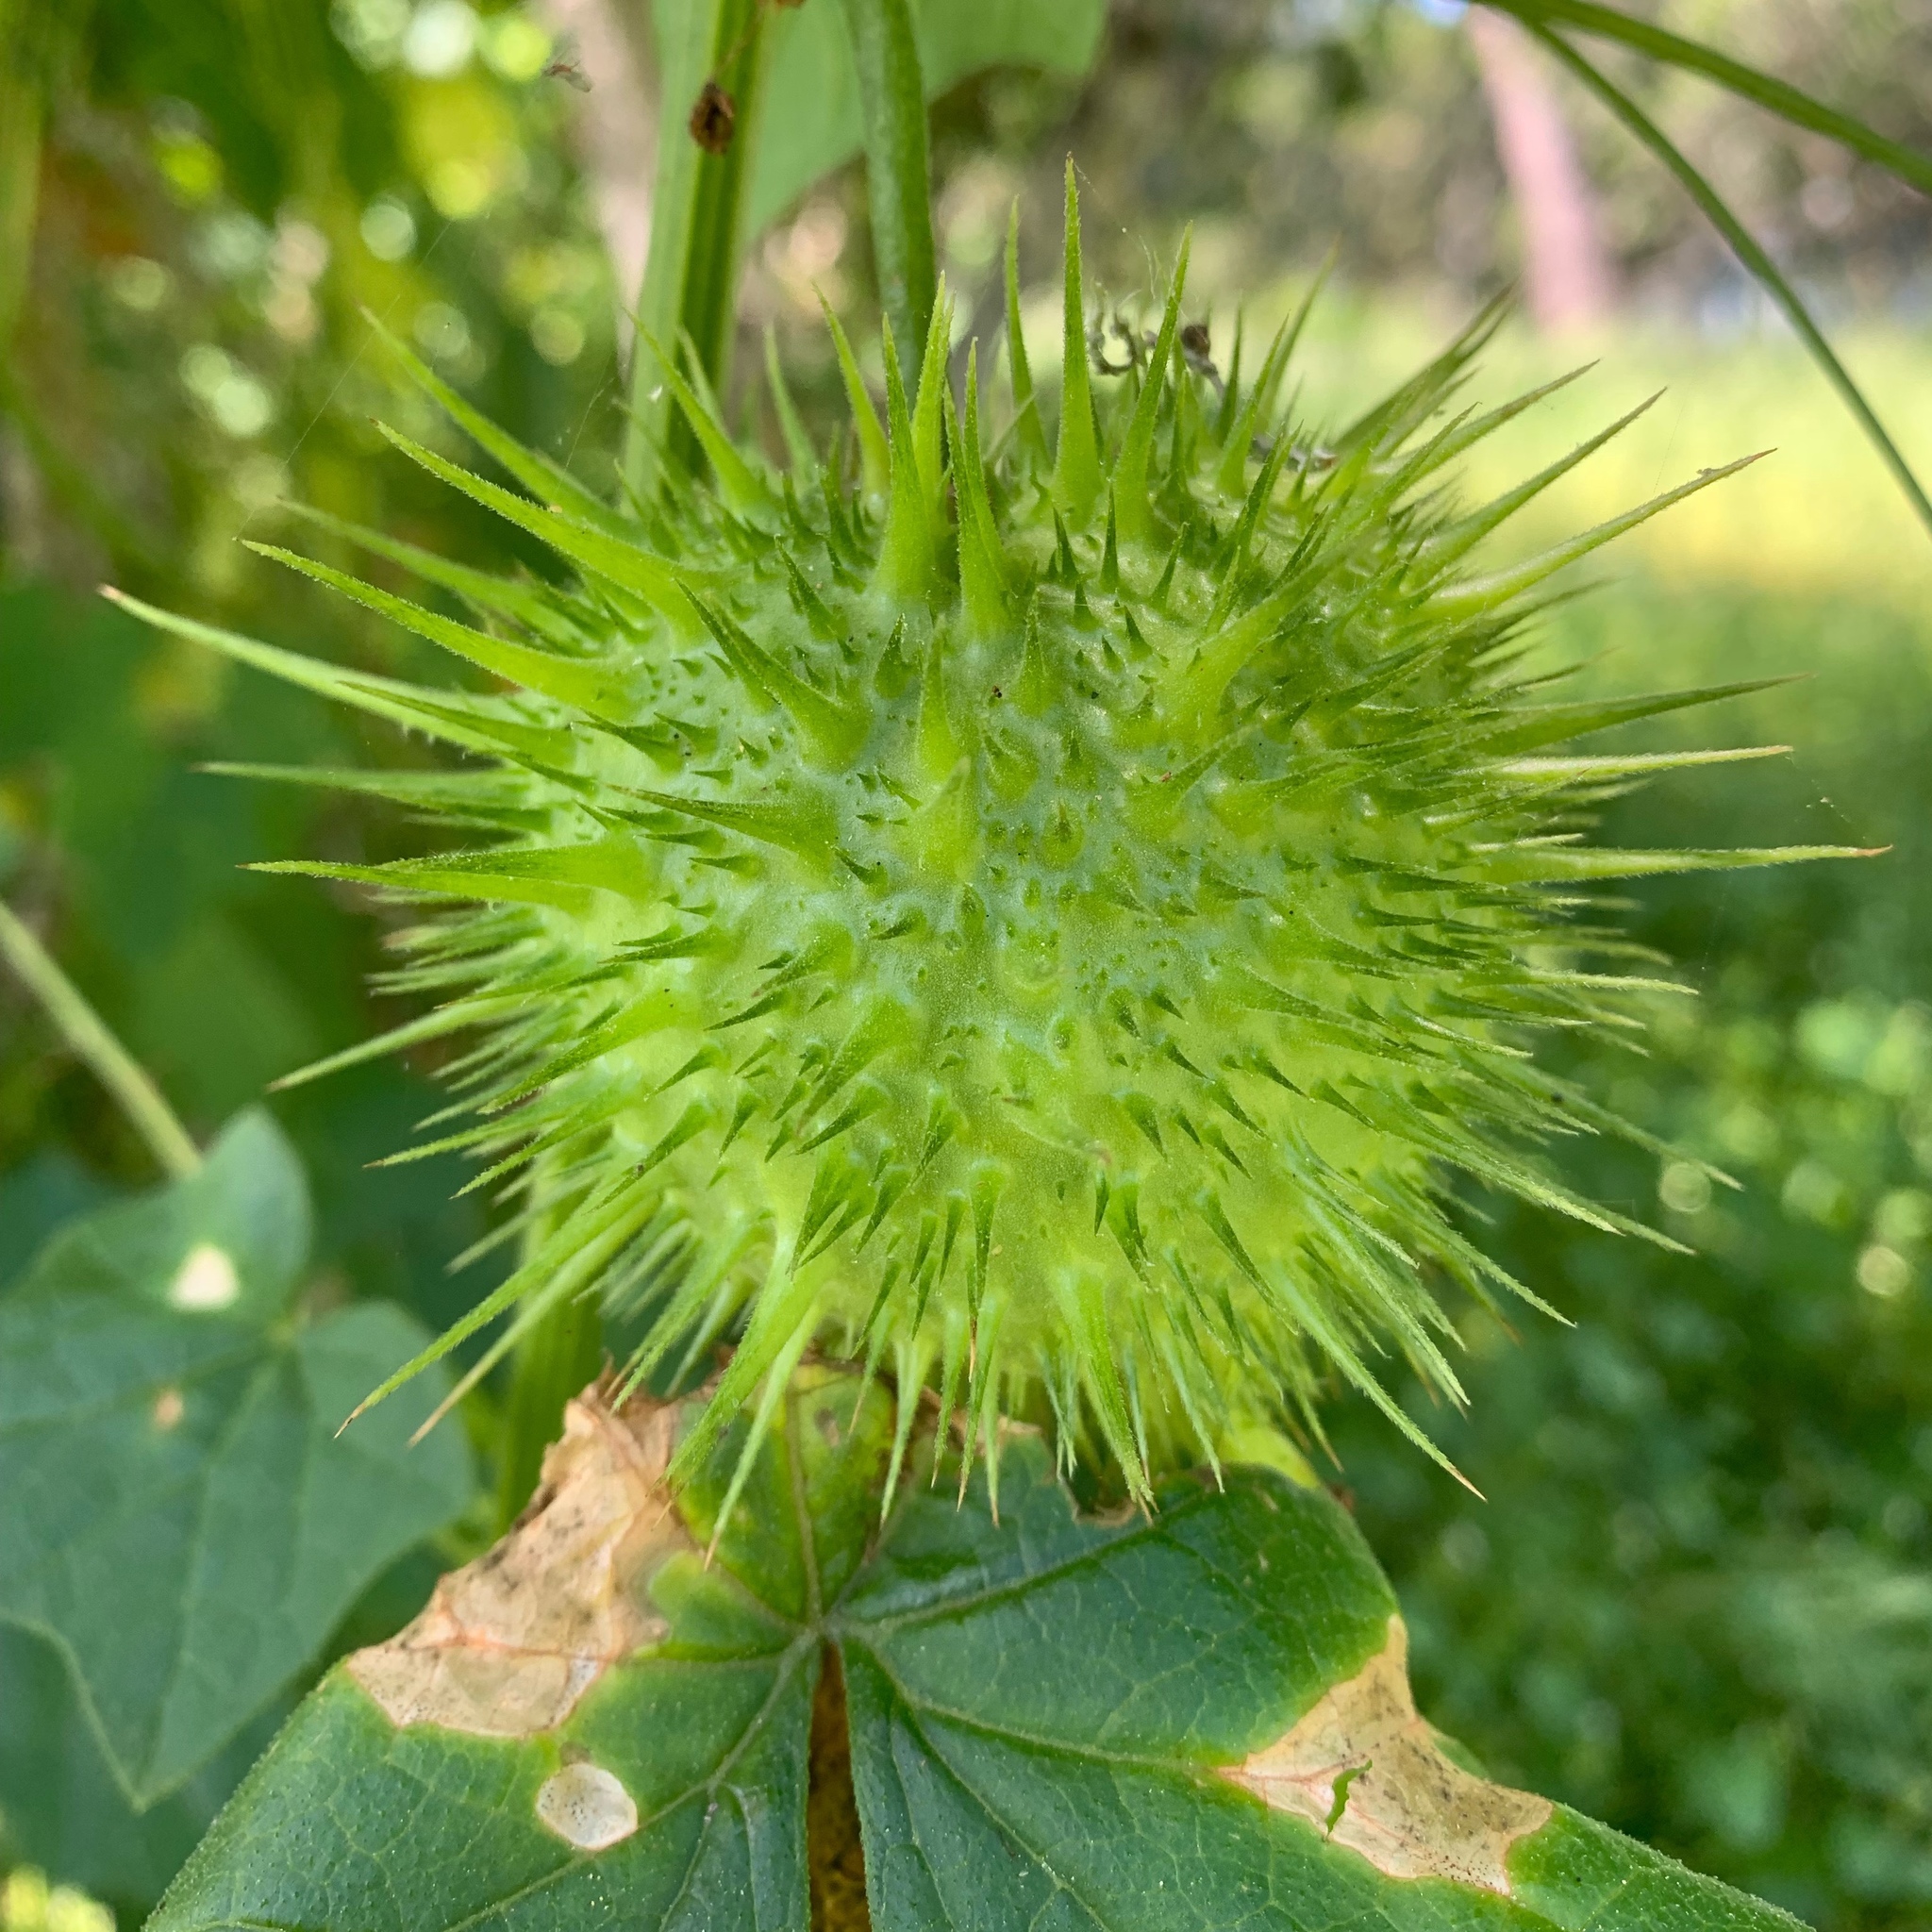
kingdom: Plantae
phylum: Tracheophyta
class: Magnoliopsida
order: Cucurbitales
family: Cucurbitaceae
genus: Marah
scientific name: Marah fabacea
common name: California manroot
